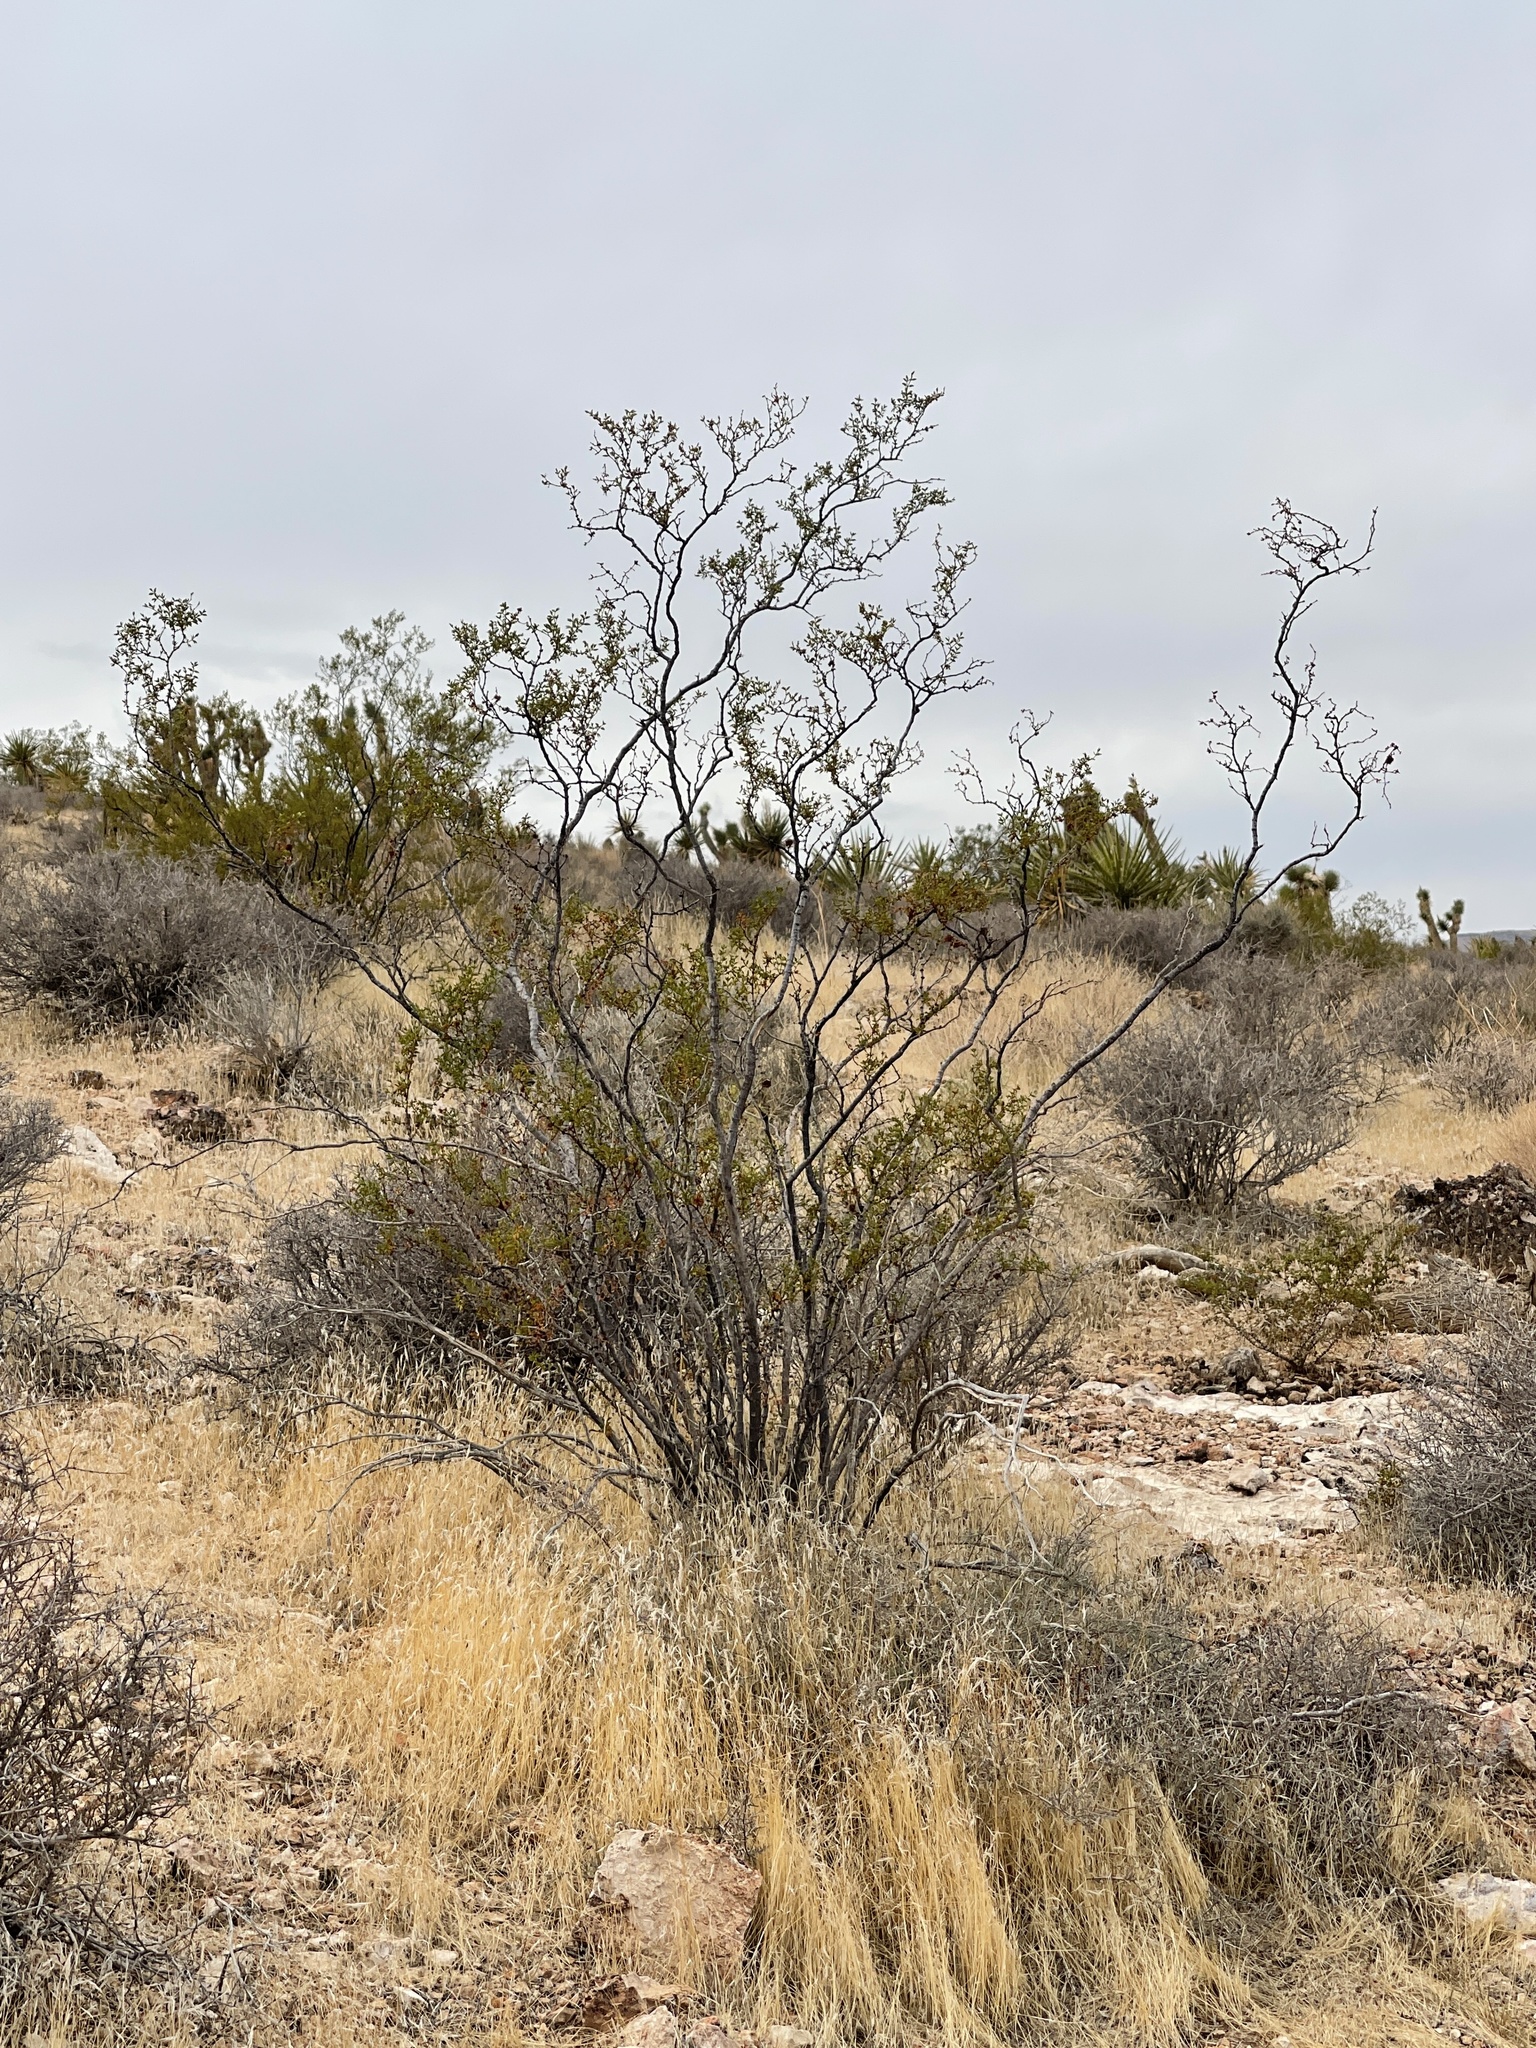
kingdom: Plantae
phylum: Tracheophyta
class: Magnoliopsida
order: Zygophyllales
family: Zygophyllaceae
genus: Larrea
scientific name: Larrea tridentata
